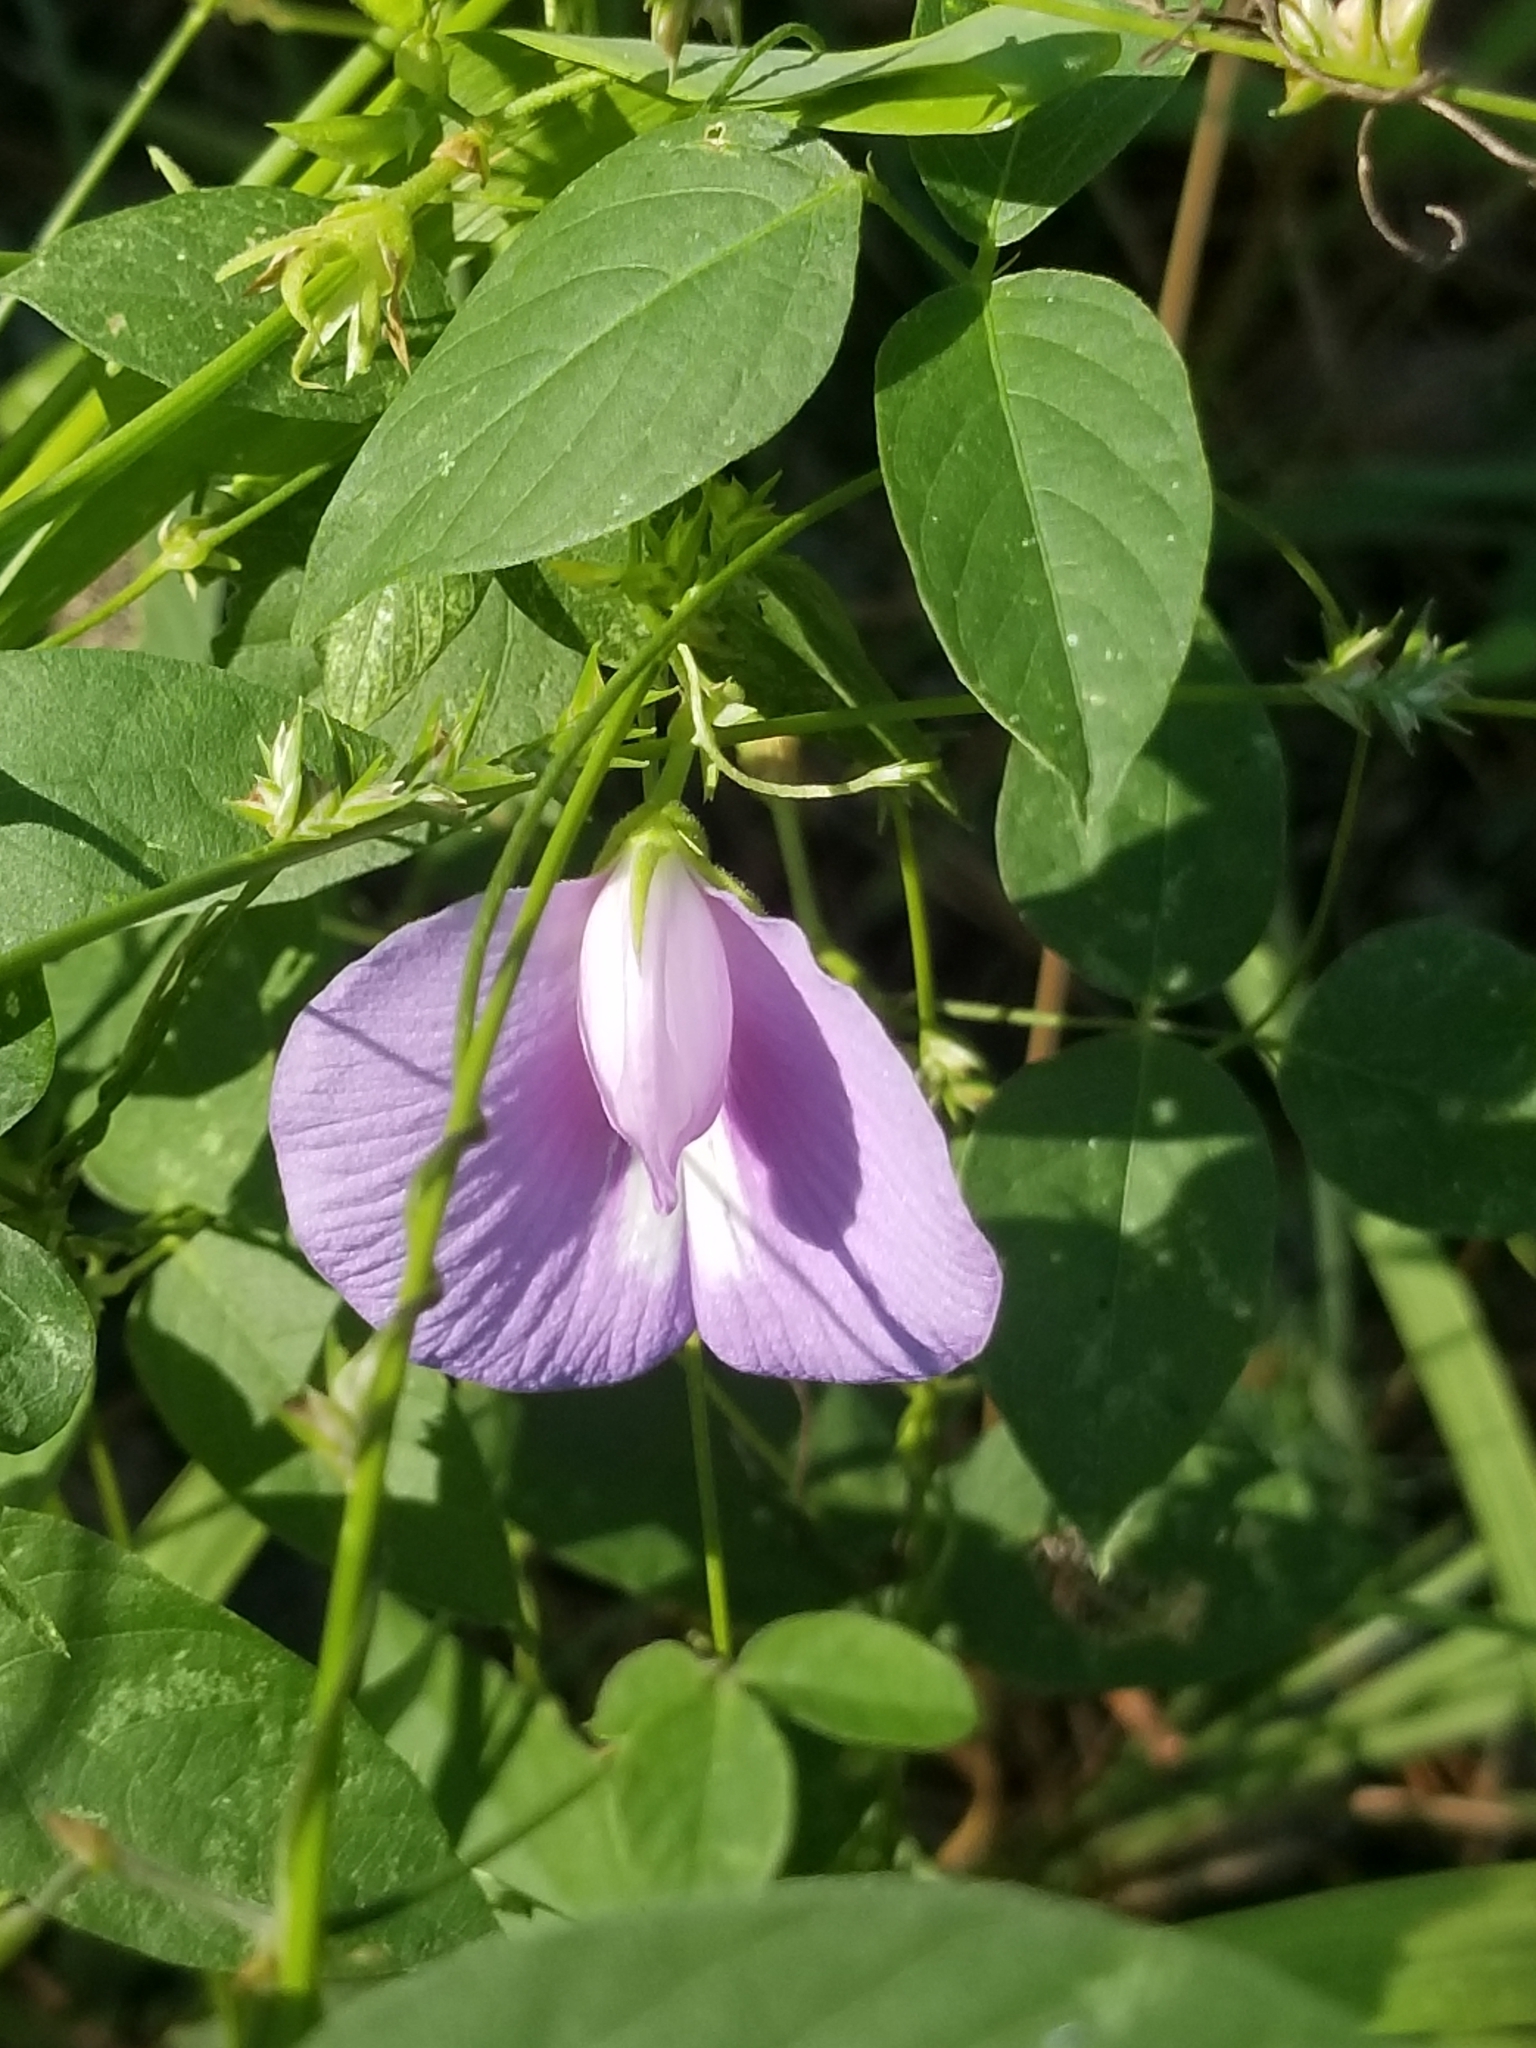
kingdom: Plantae
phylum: Tracheophyta
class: Magnoliopsida
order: Fabales
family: Fabaceae
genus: Centrosema
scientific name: Centrosema virginianum
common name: Butterfly-pea
